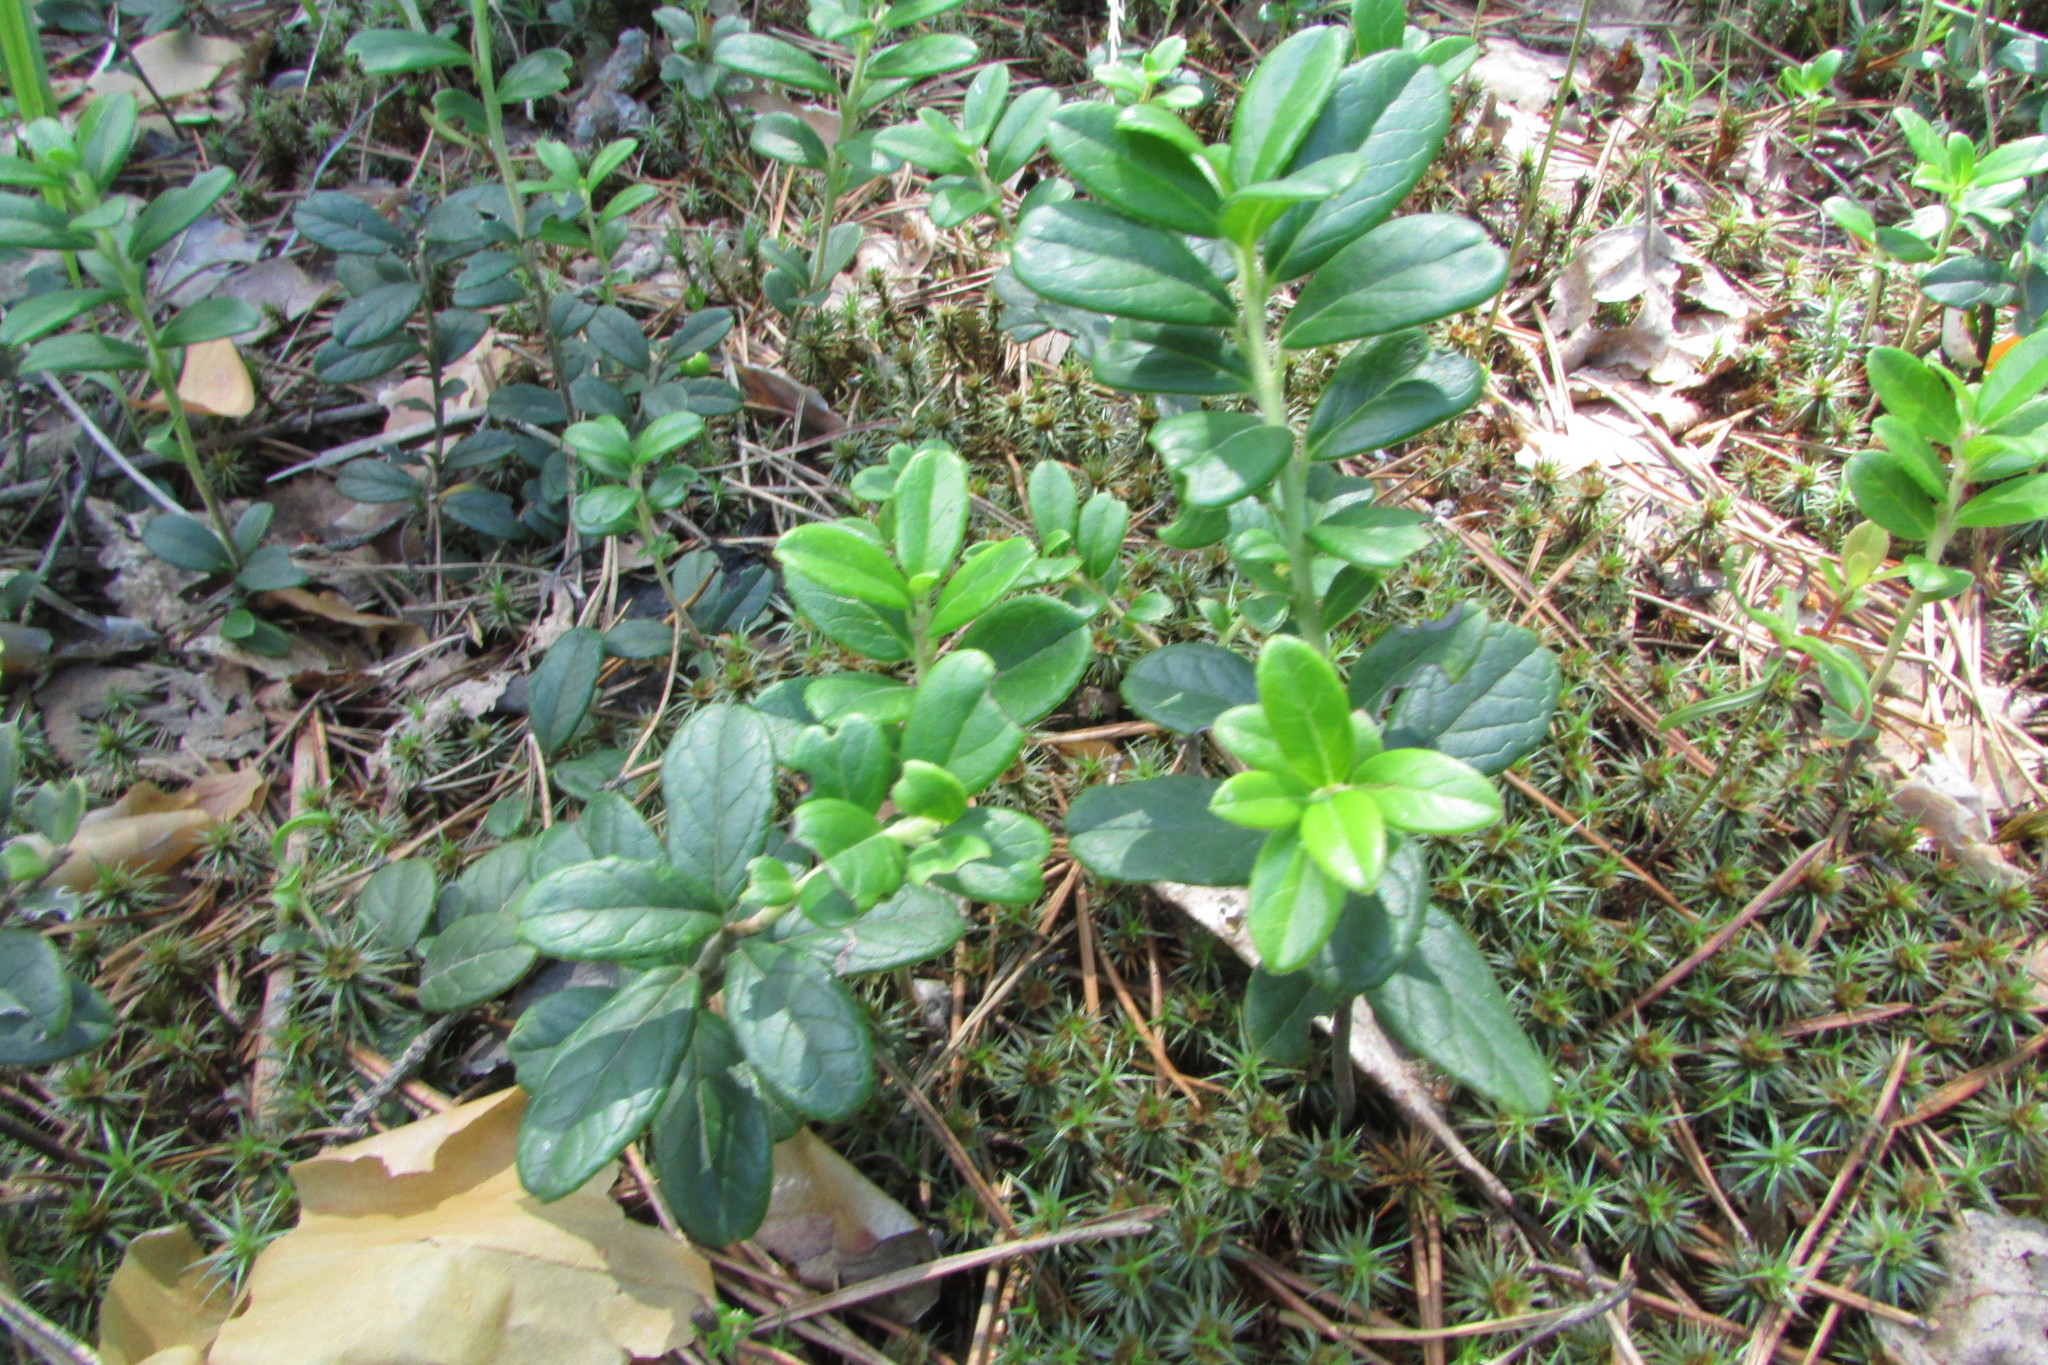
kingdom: Plantae
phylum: Tracheophyta
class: Magnoliopsida
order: Ericales
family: Ericaceae
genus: Vaccinium
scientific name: Vaccinium vitis-idaea
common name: Cowberry
